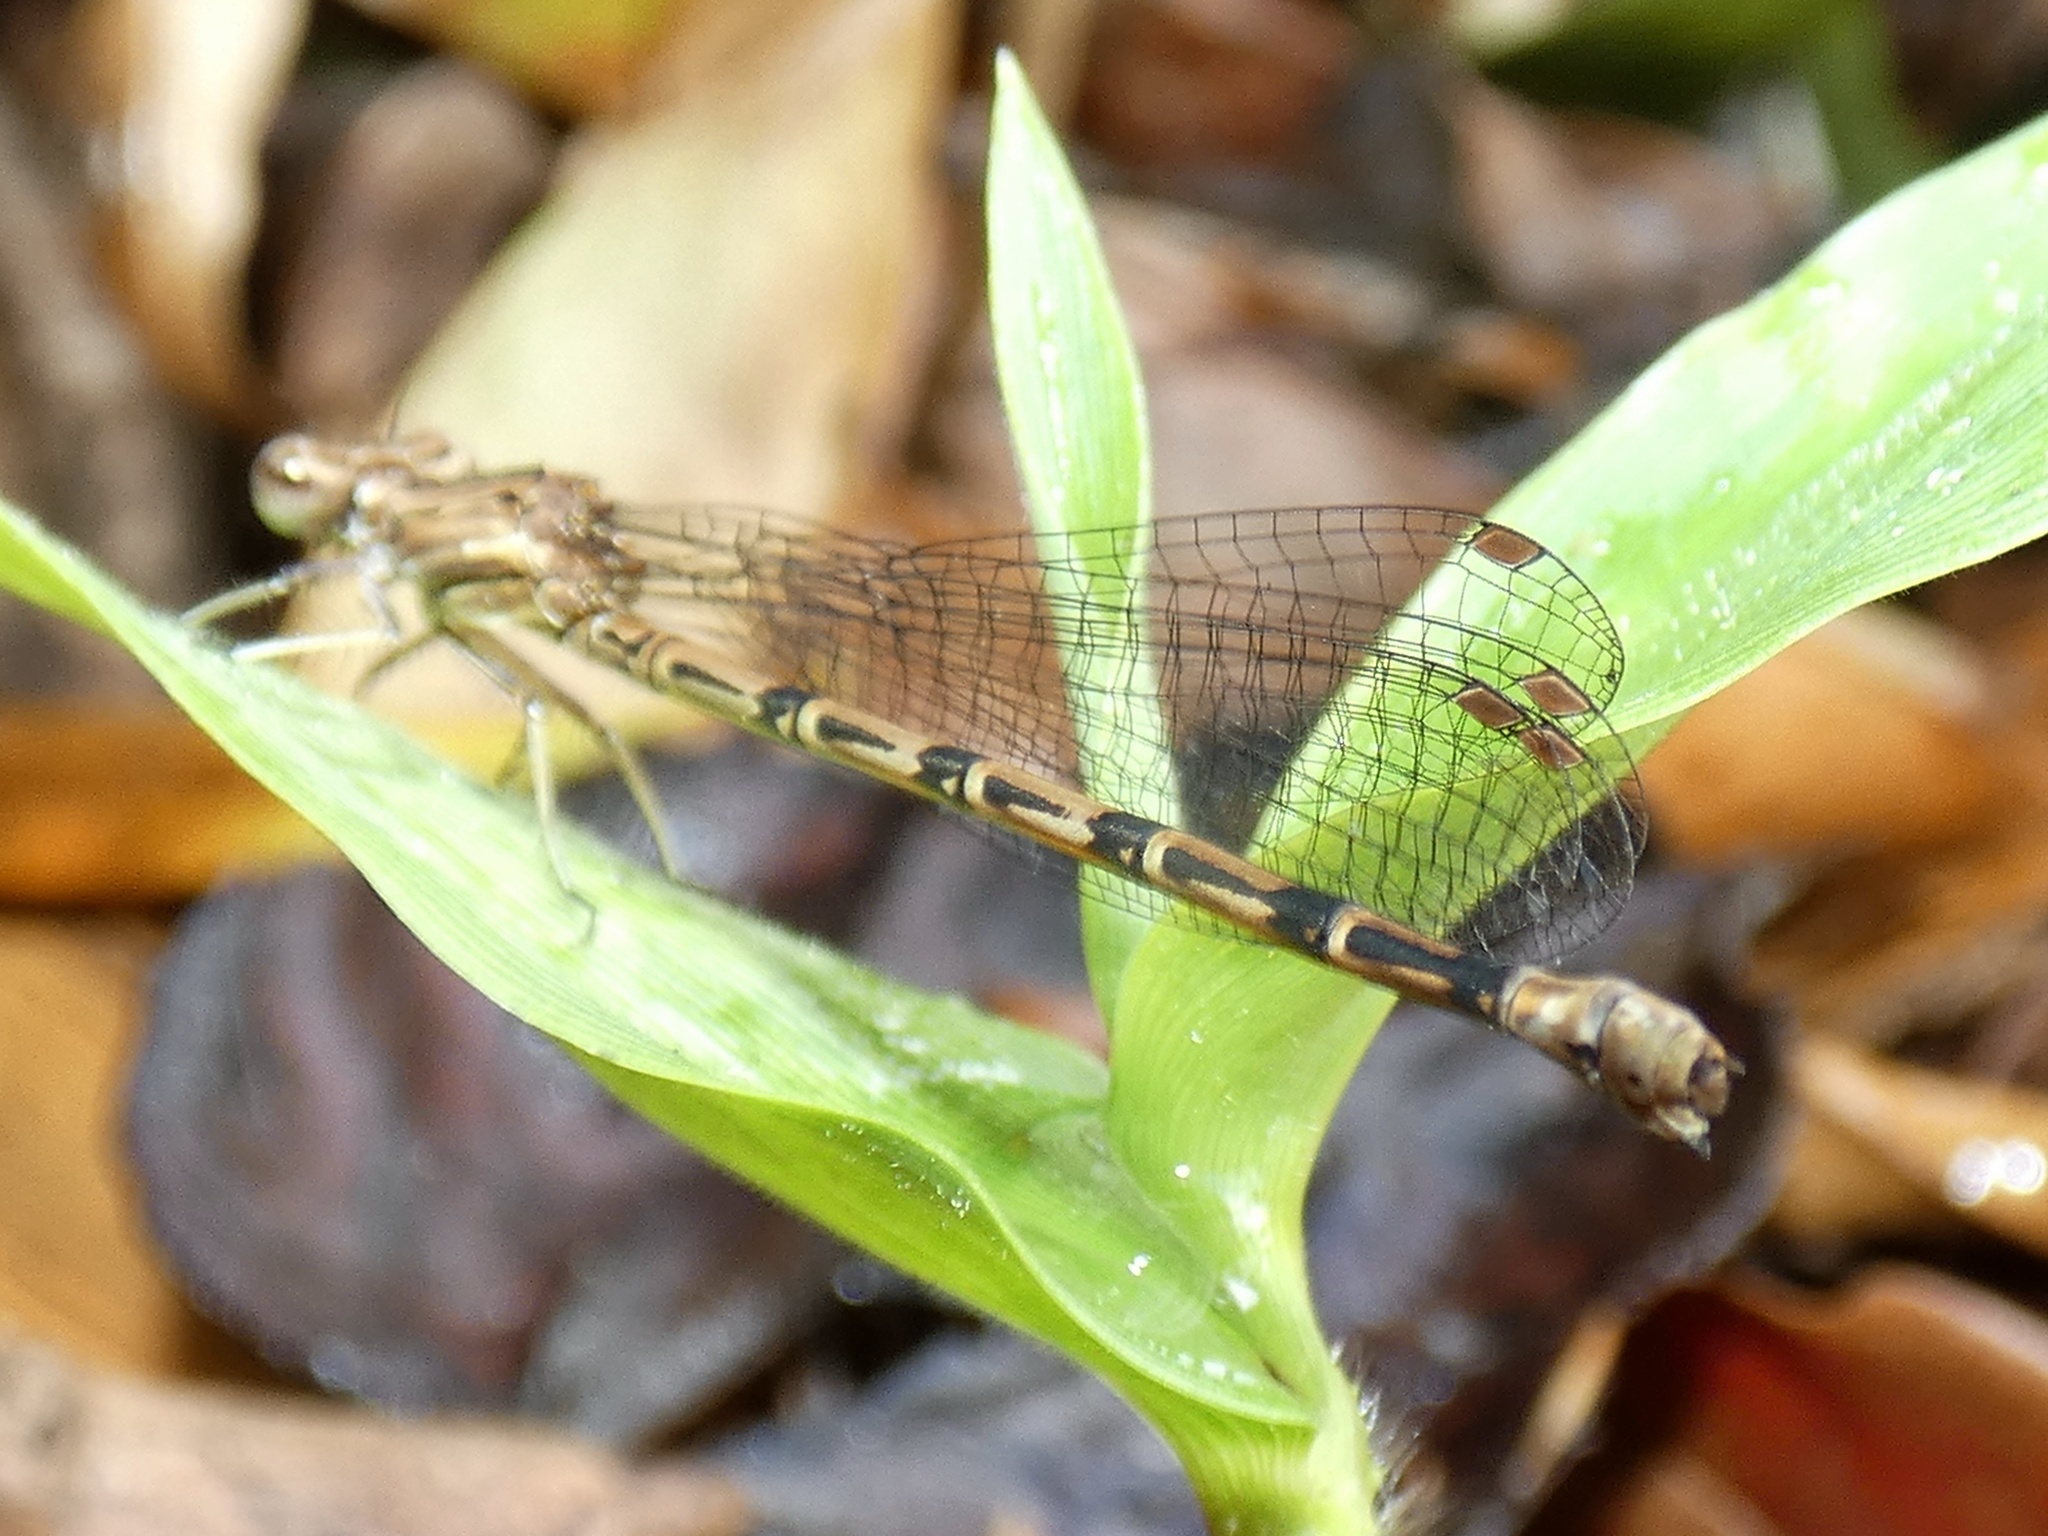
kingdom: Animalia
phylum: Arthropoda
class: Insecta
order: Odonata
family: Coenagrionidae
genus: Argia
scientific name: Argia fissa
